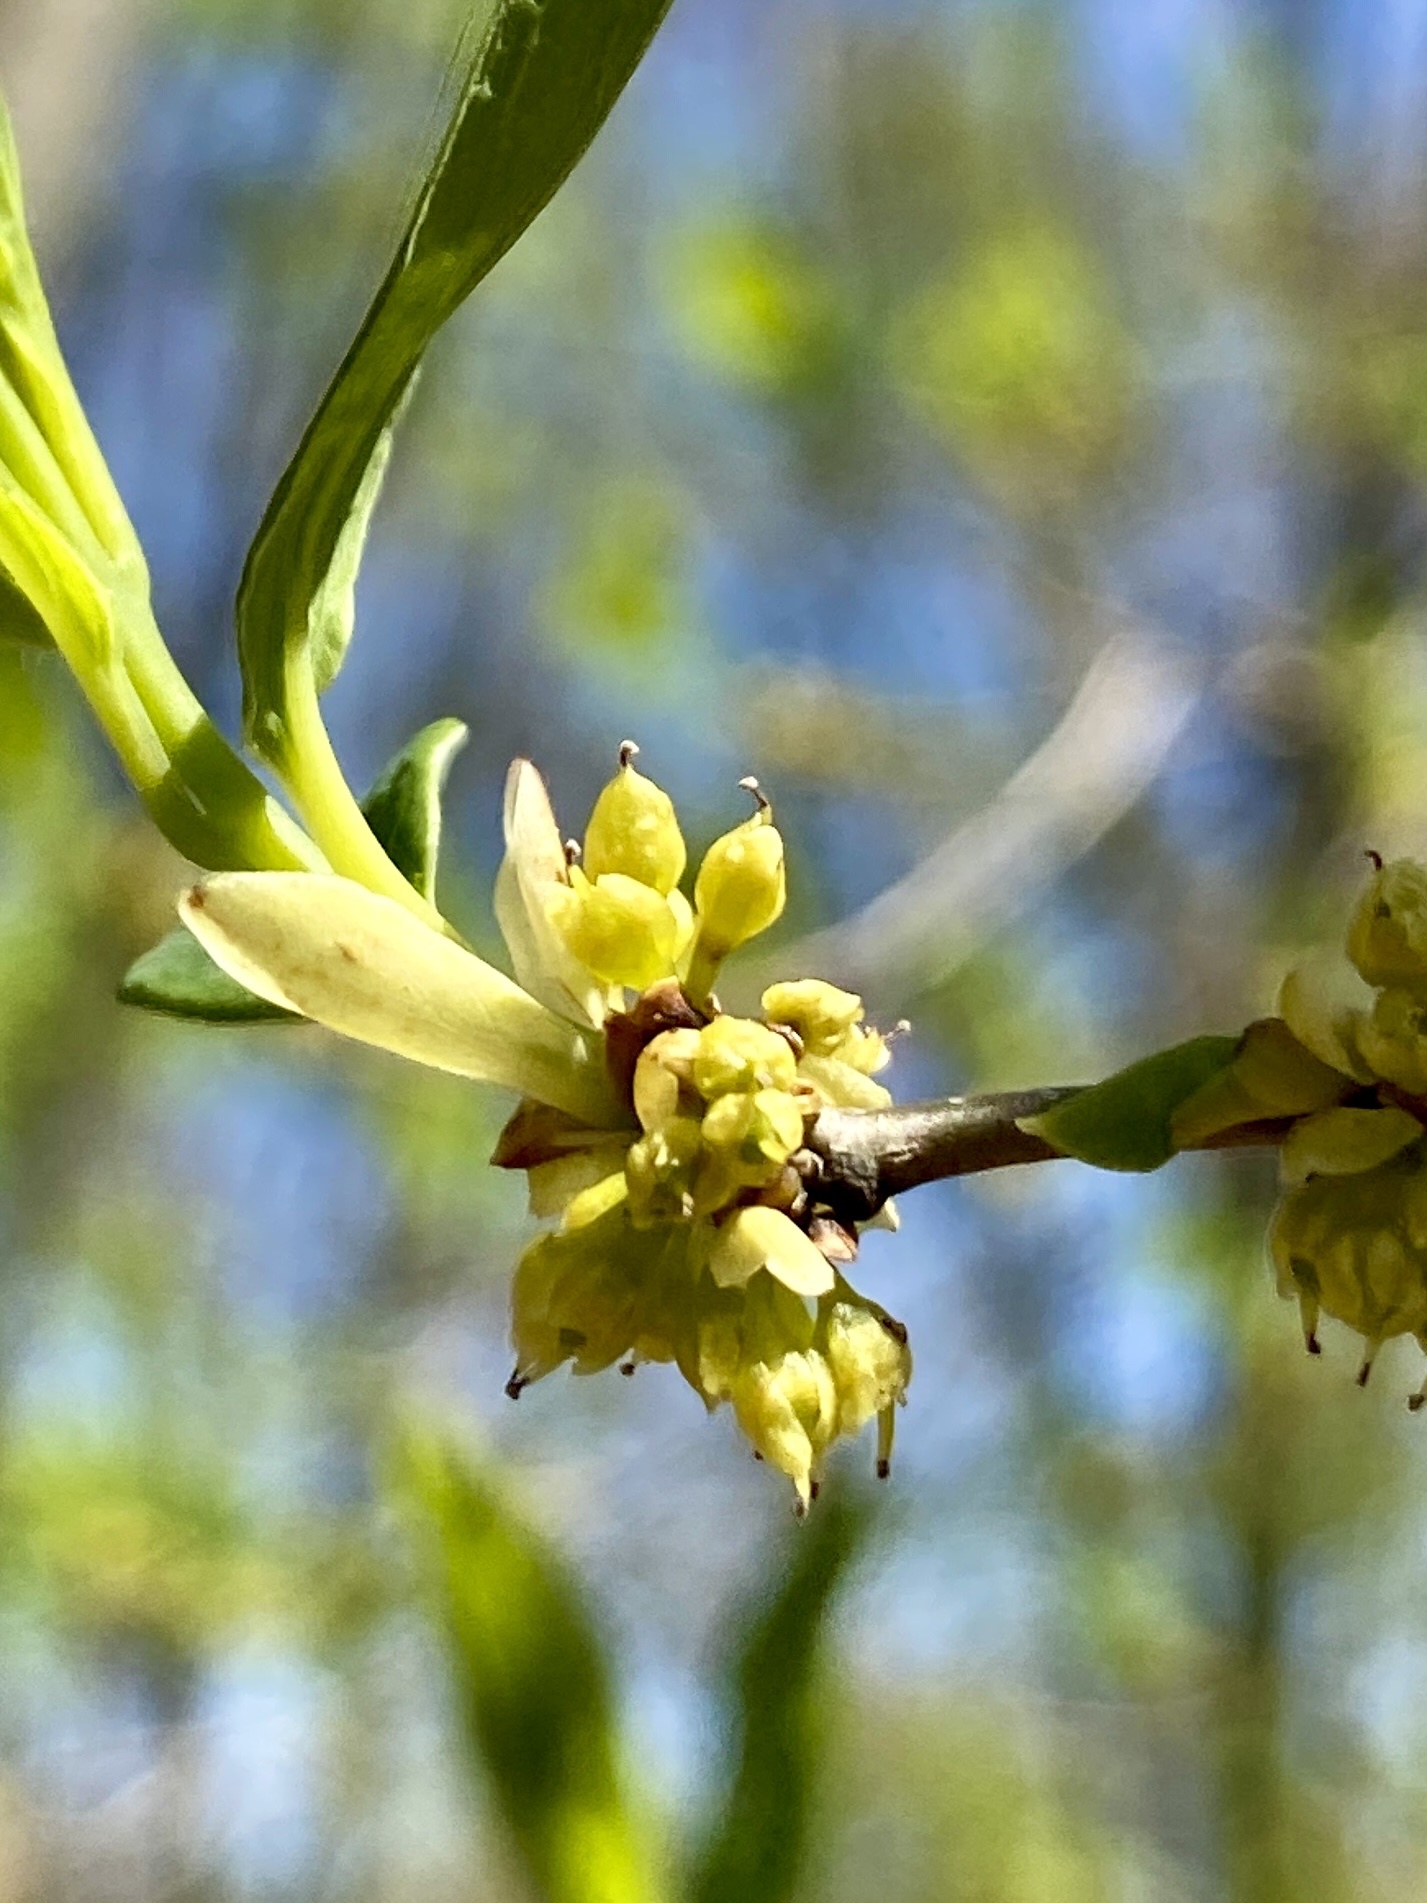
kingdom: Plantae
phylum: Tracheophyta
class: Magnoliopsida
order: Laurales
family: Lauraceae
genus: Lindera
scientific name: Lindera benzoin
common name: Spicebush
